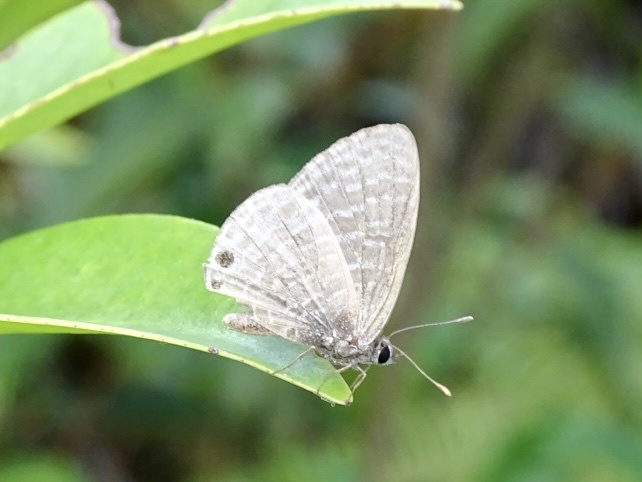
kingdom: Animalia
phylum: Arthropoda
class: Insecta
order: Lepidoptera
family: Lycaenidae
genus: Nacaduba
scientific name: Nacaduba kurava
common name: Transparent 6-line blue
